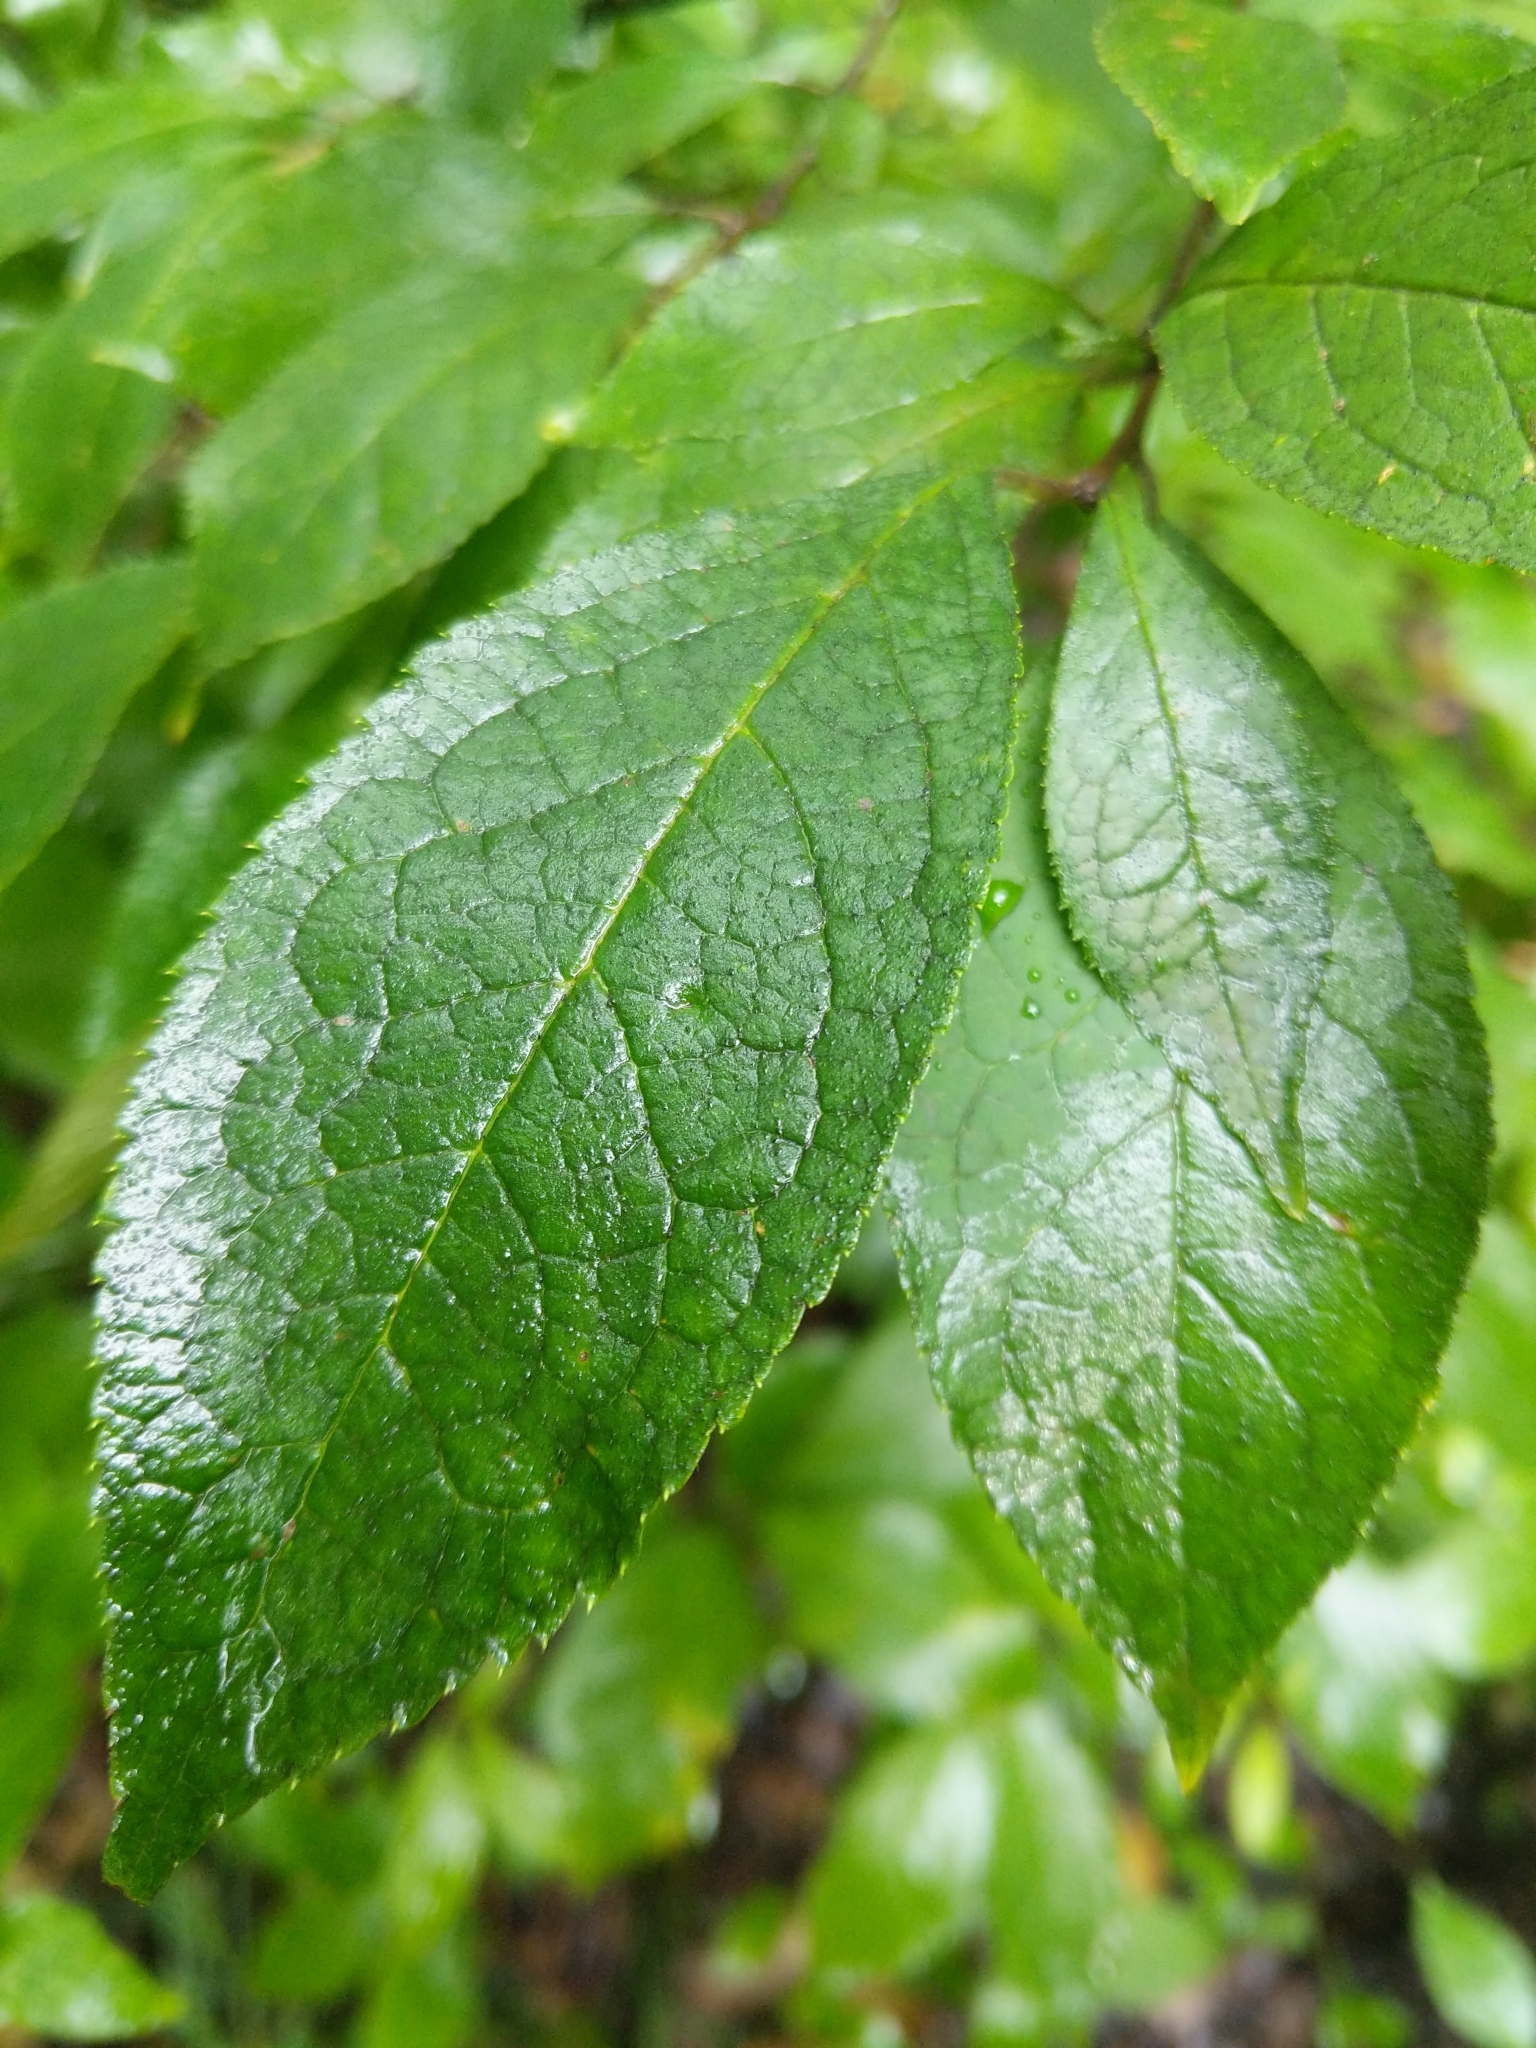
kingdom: Plantae
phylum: Tracheophyta
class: Magnoliopsida
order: Aquifoliales
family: Aquifoliaceae
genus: Ilex
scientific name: Ilex verticillata
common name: Virginia winterberry
